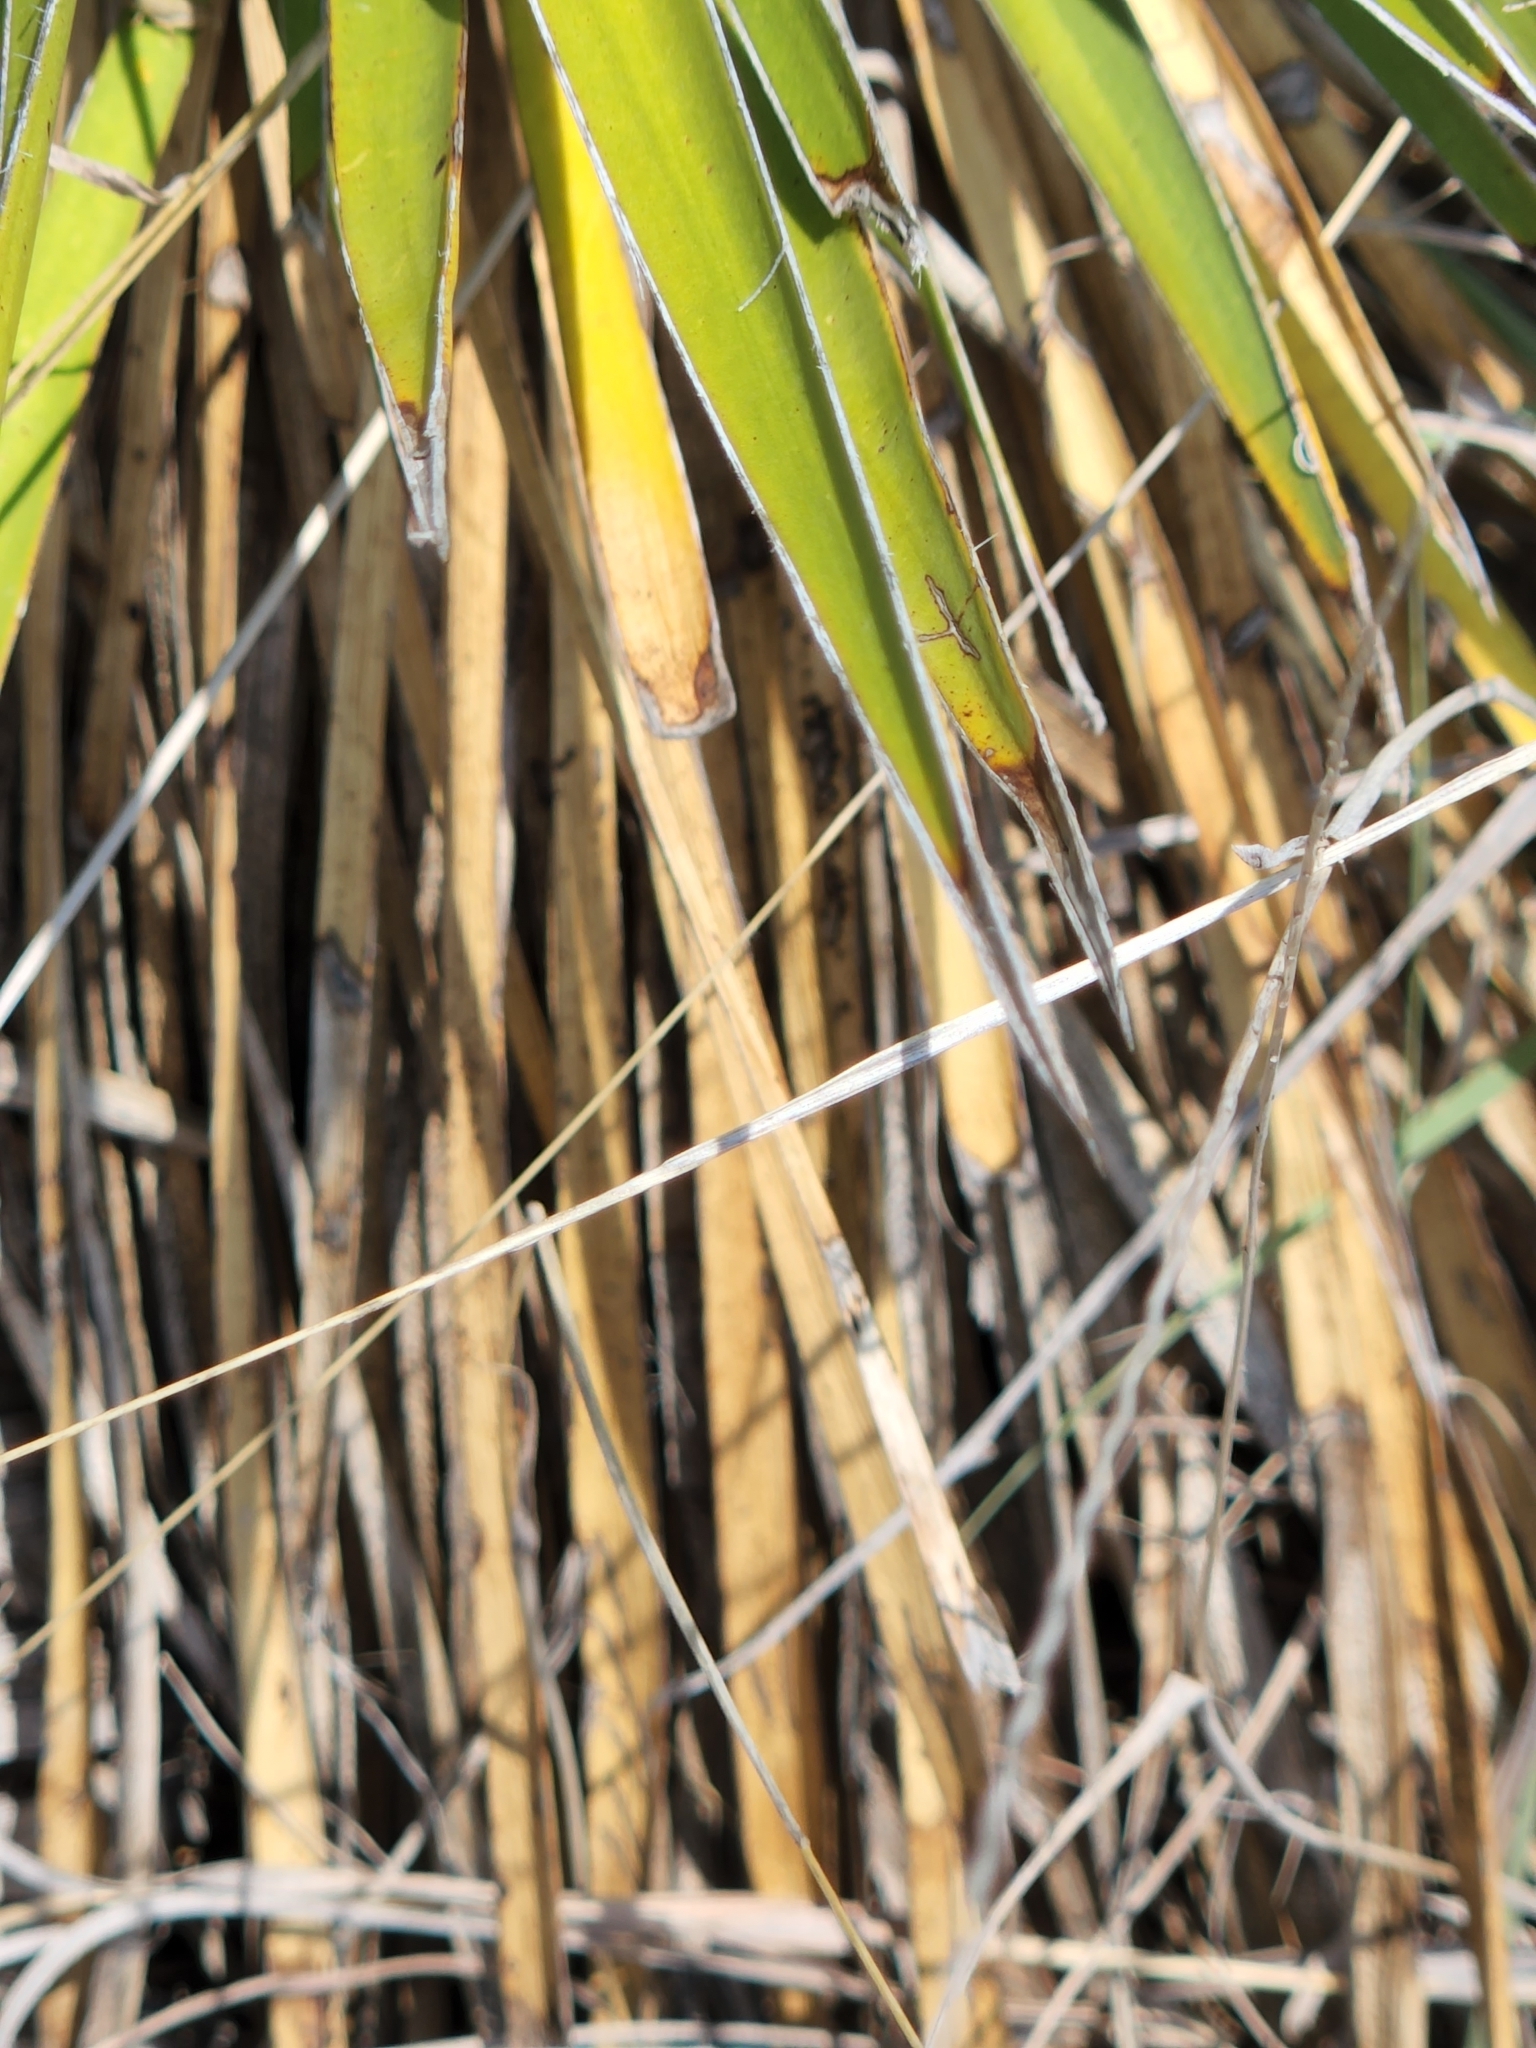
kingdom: Plantae
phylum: Tracheophyta
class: Liliopsida
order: Asparagales
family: Asparagaceae
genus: Yucca
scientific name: Yucca constricta
